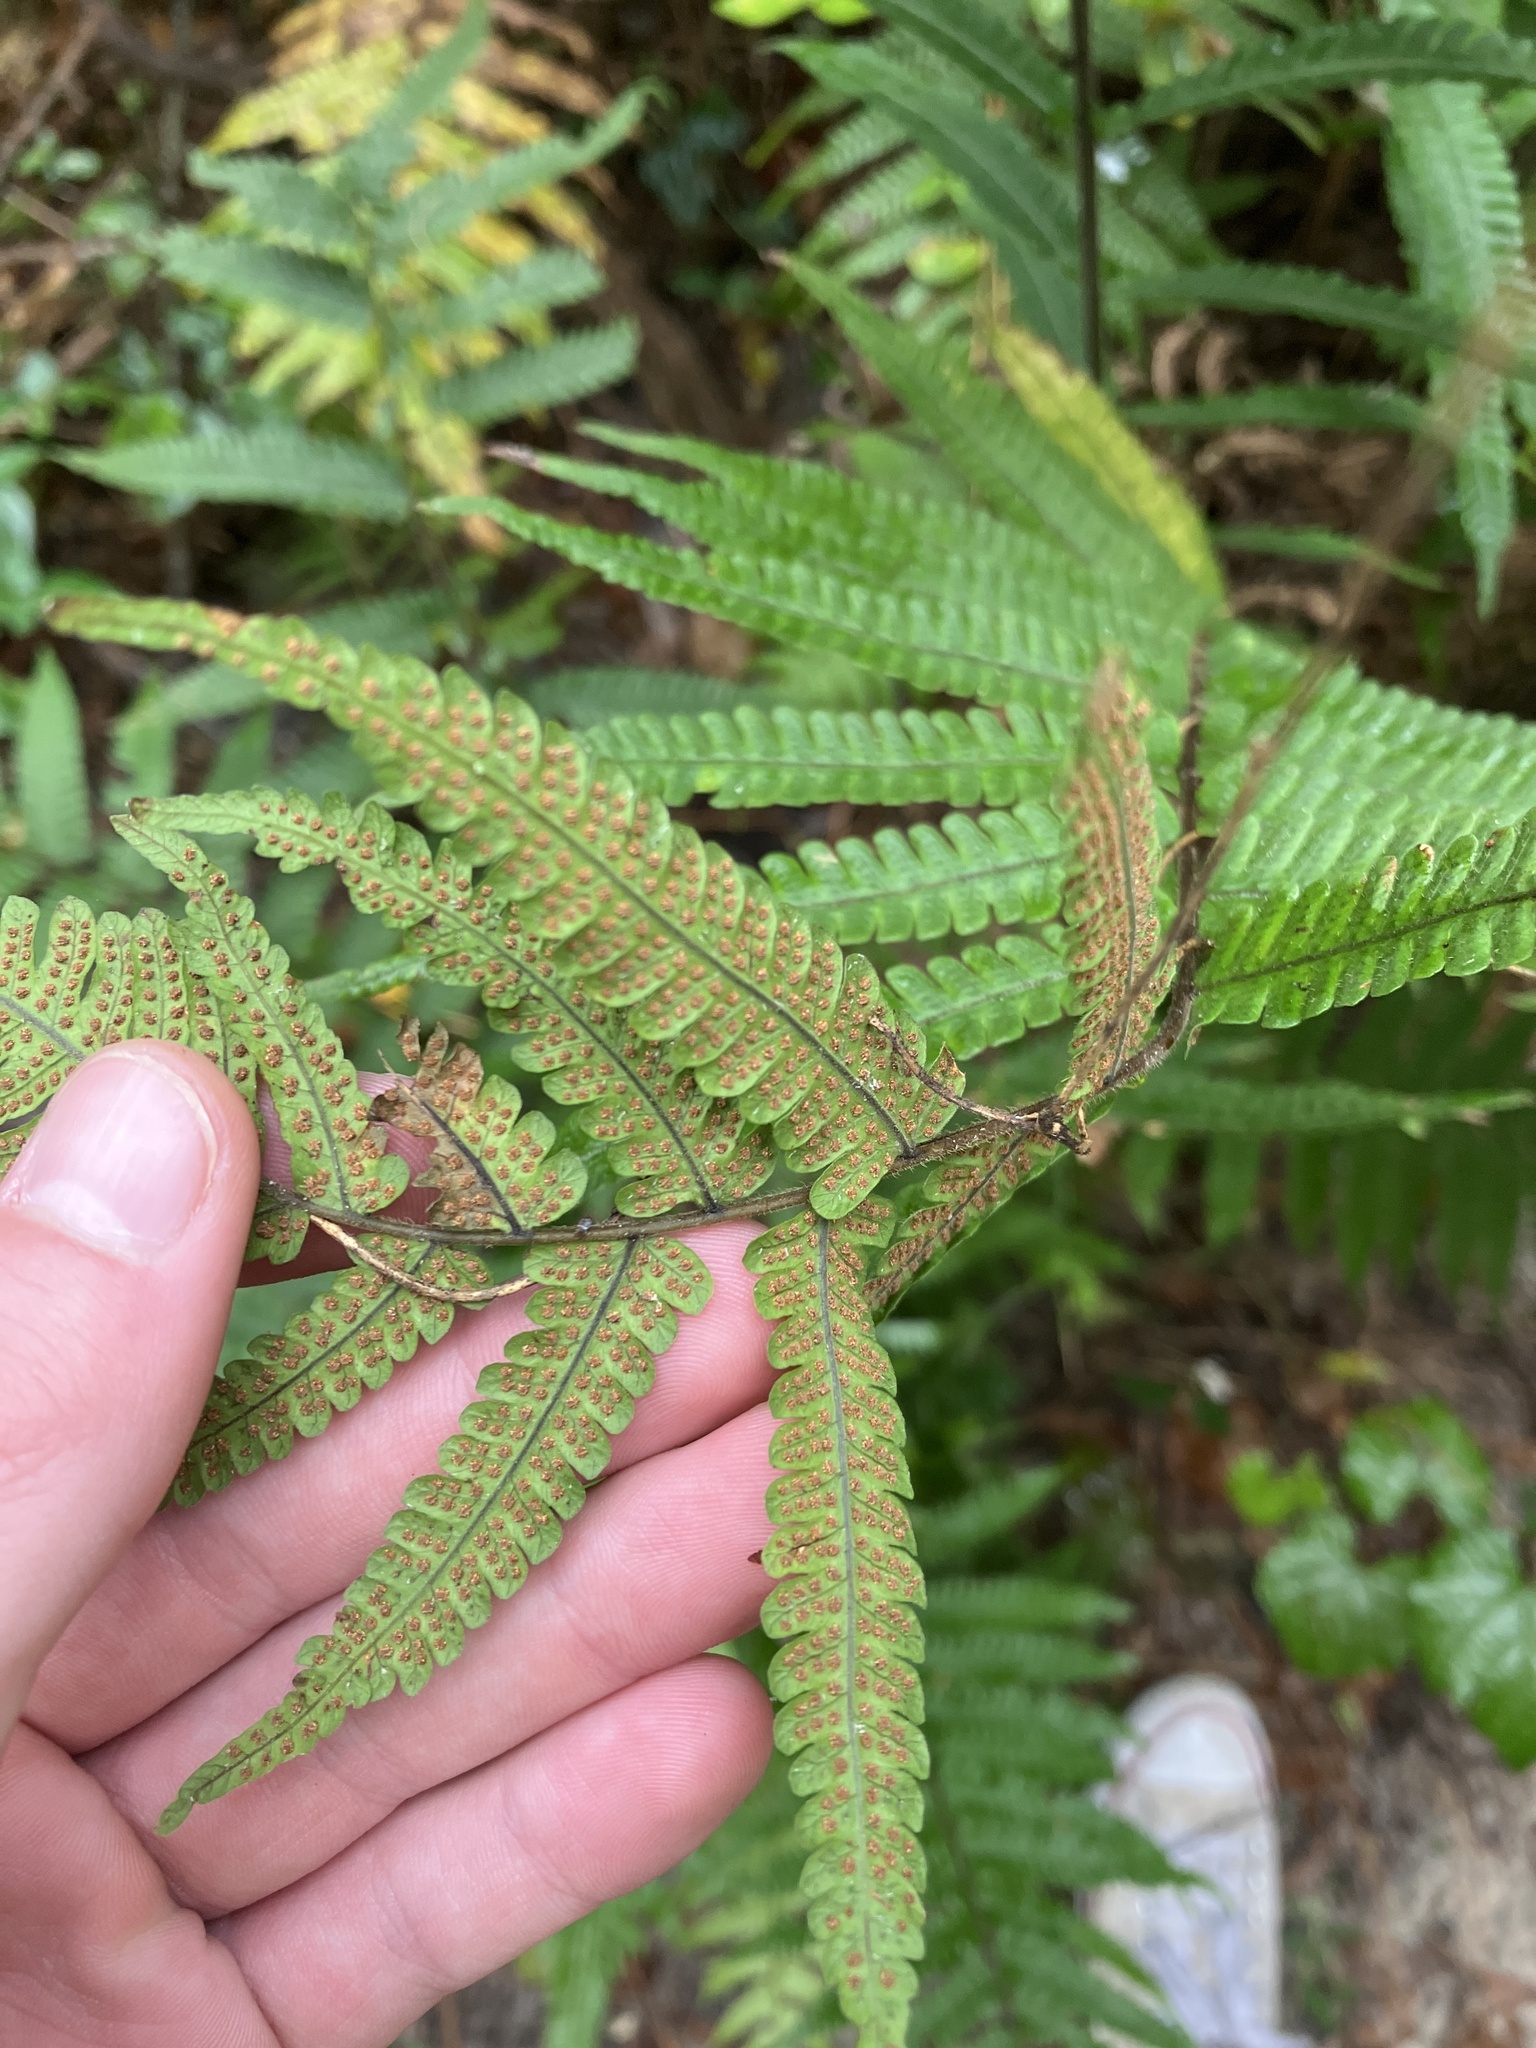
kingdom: Plantae
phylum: Tracheophyta
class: Polypodiopsida
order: Polypodiales
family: Thelypteridaceae
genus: Christella
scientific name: Christella dentata
